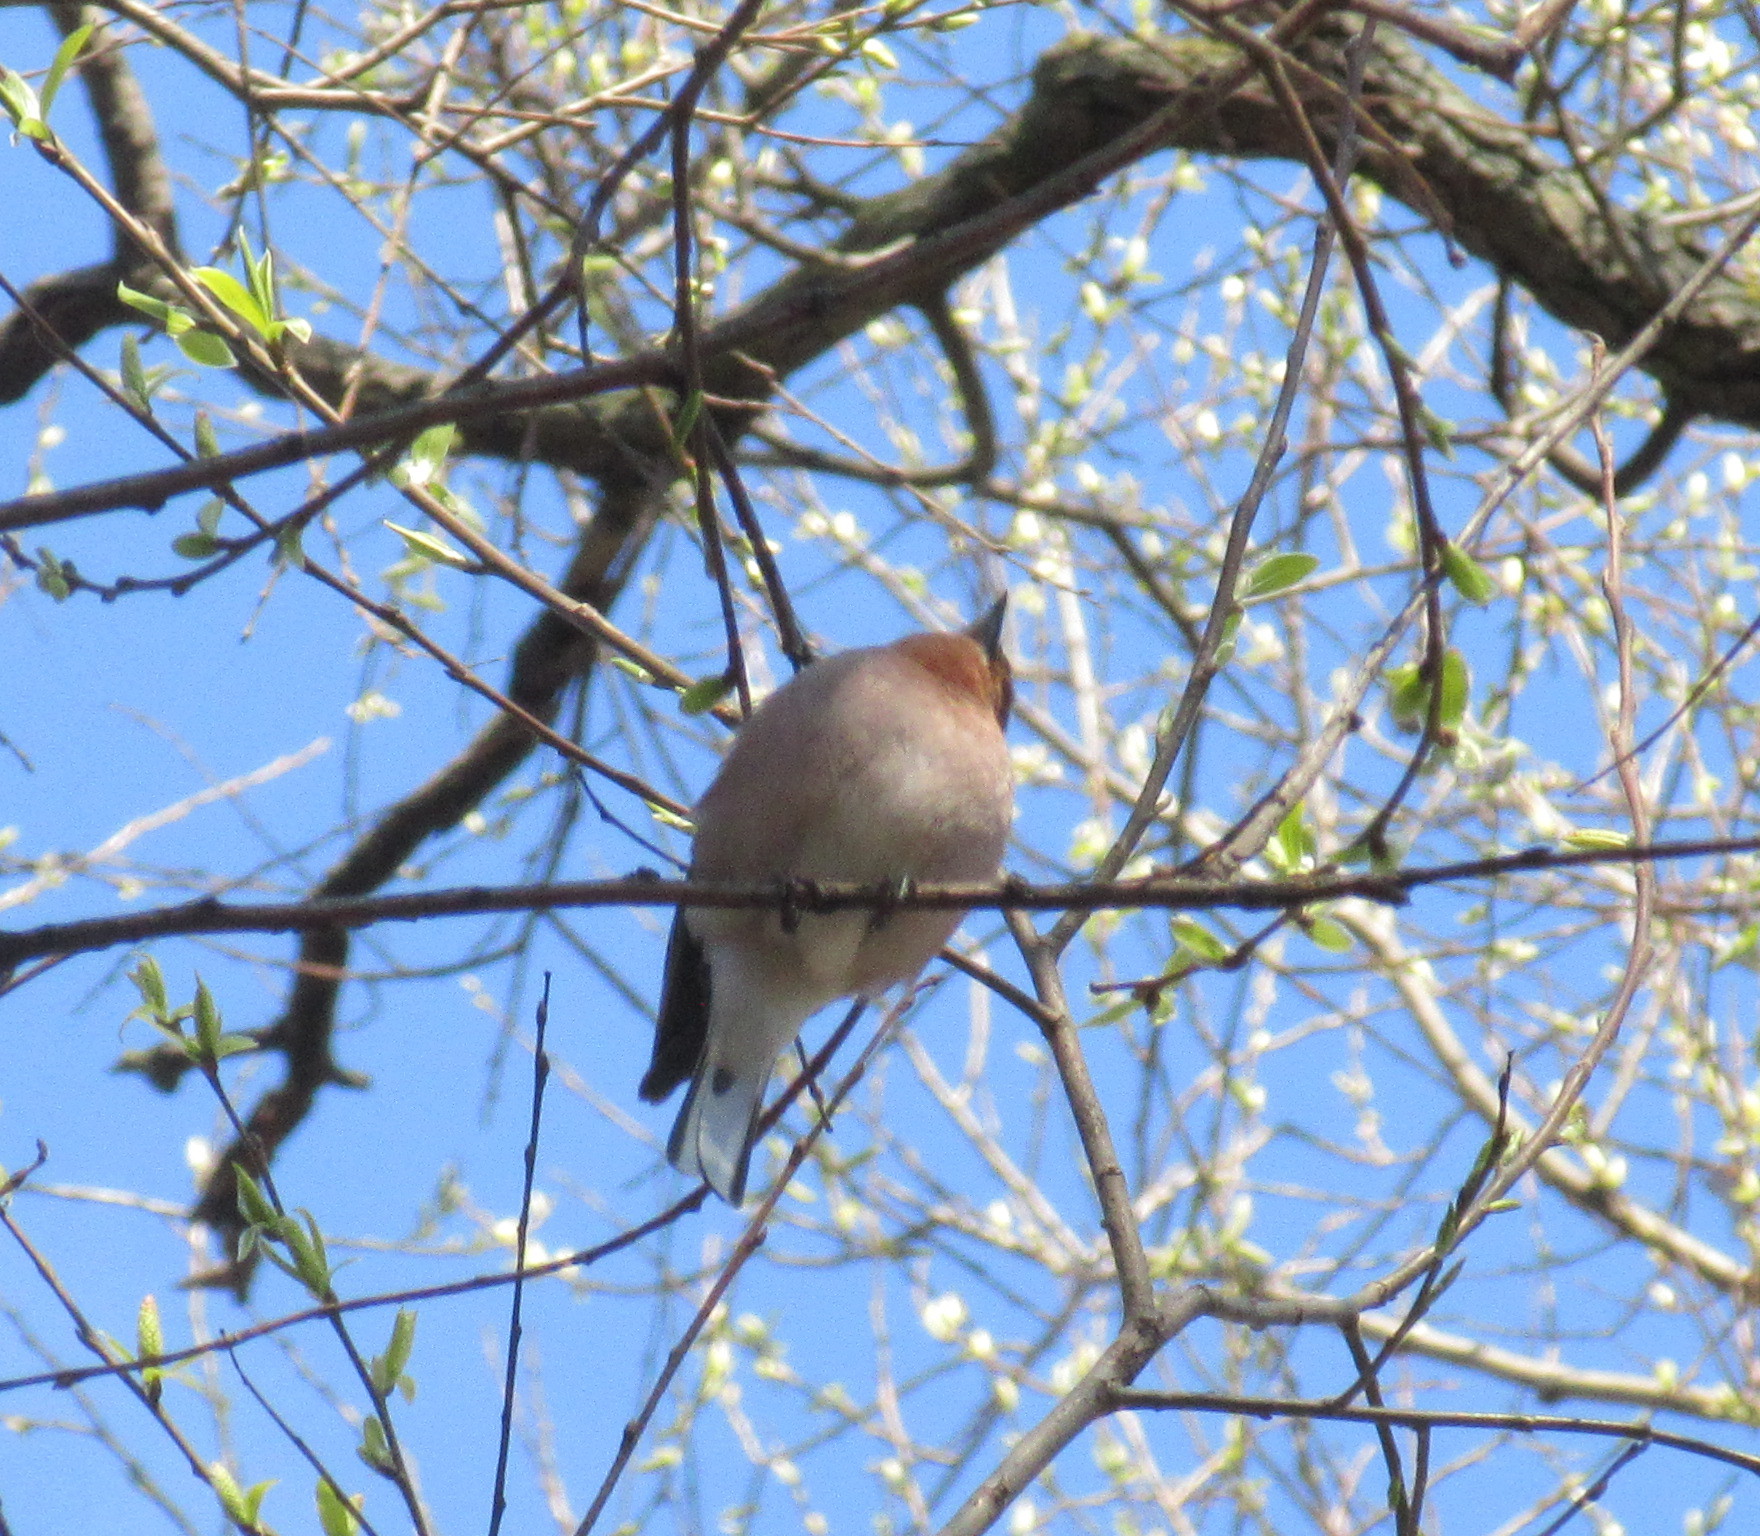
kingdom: Animalia
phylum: Chordata
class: Aves
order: Passeriformes
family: Fringillidae
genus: Fringilla
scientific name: Fringilla coelebs
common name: Common chaffinch
